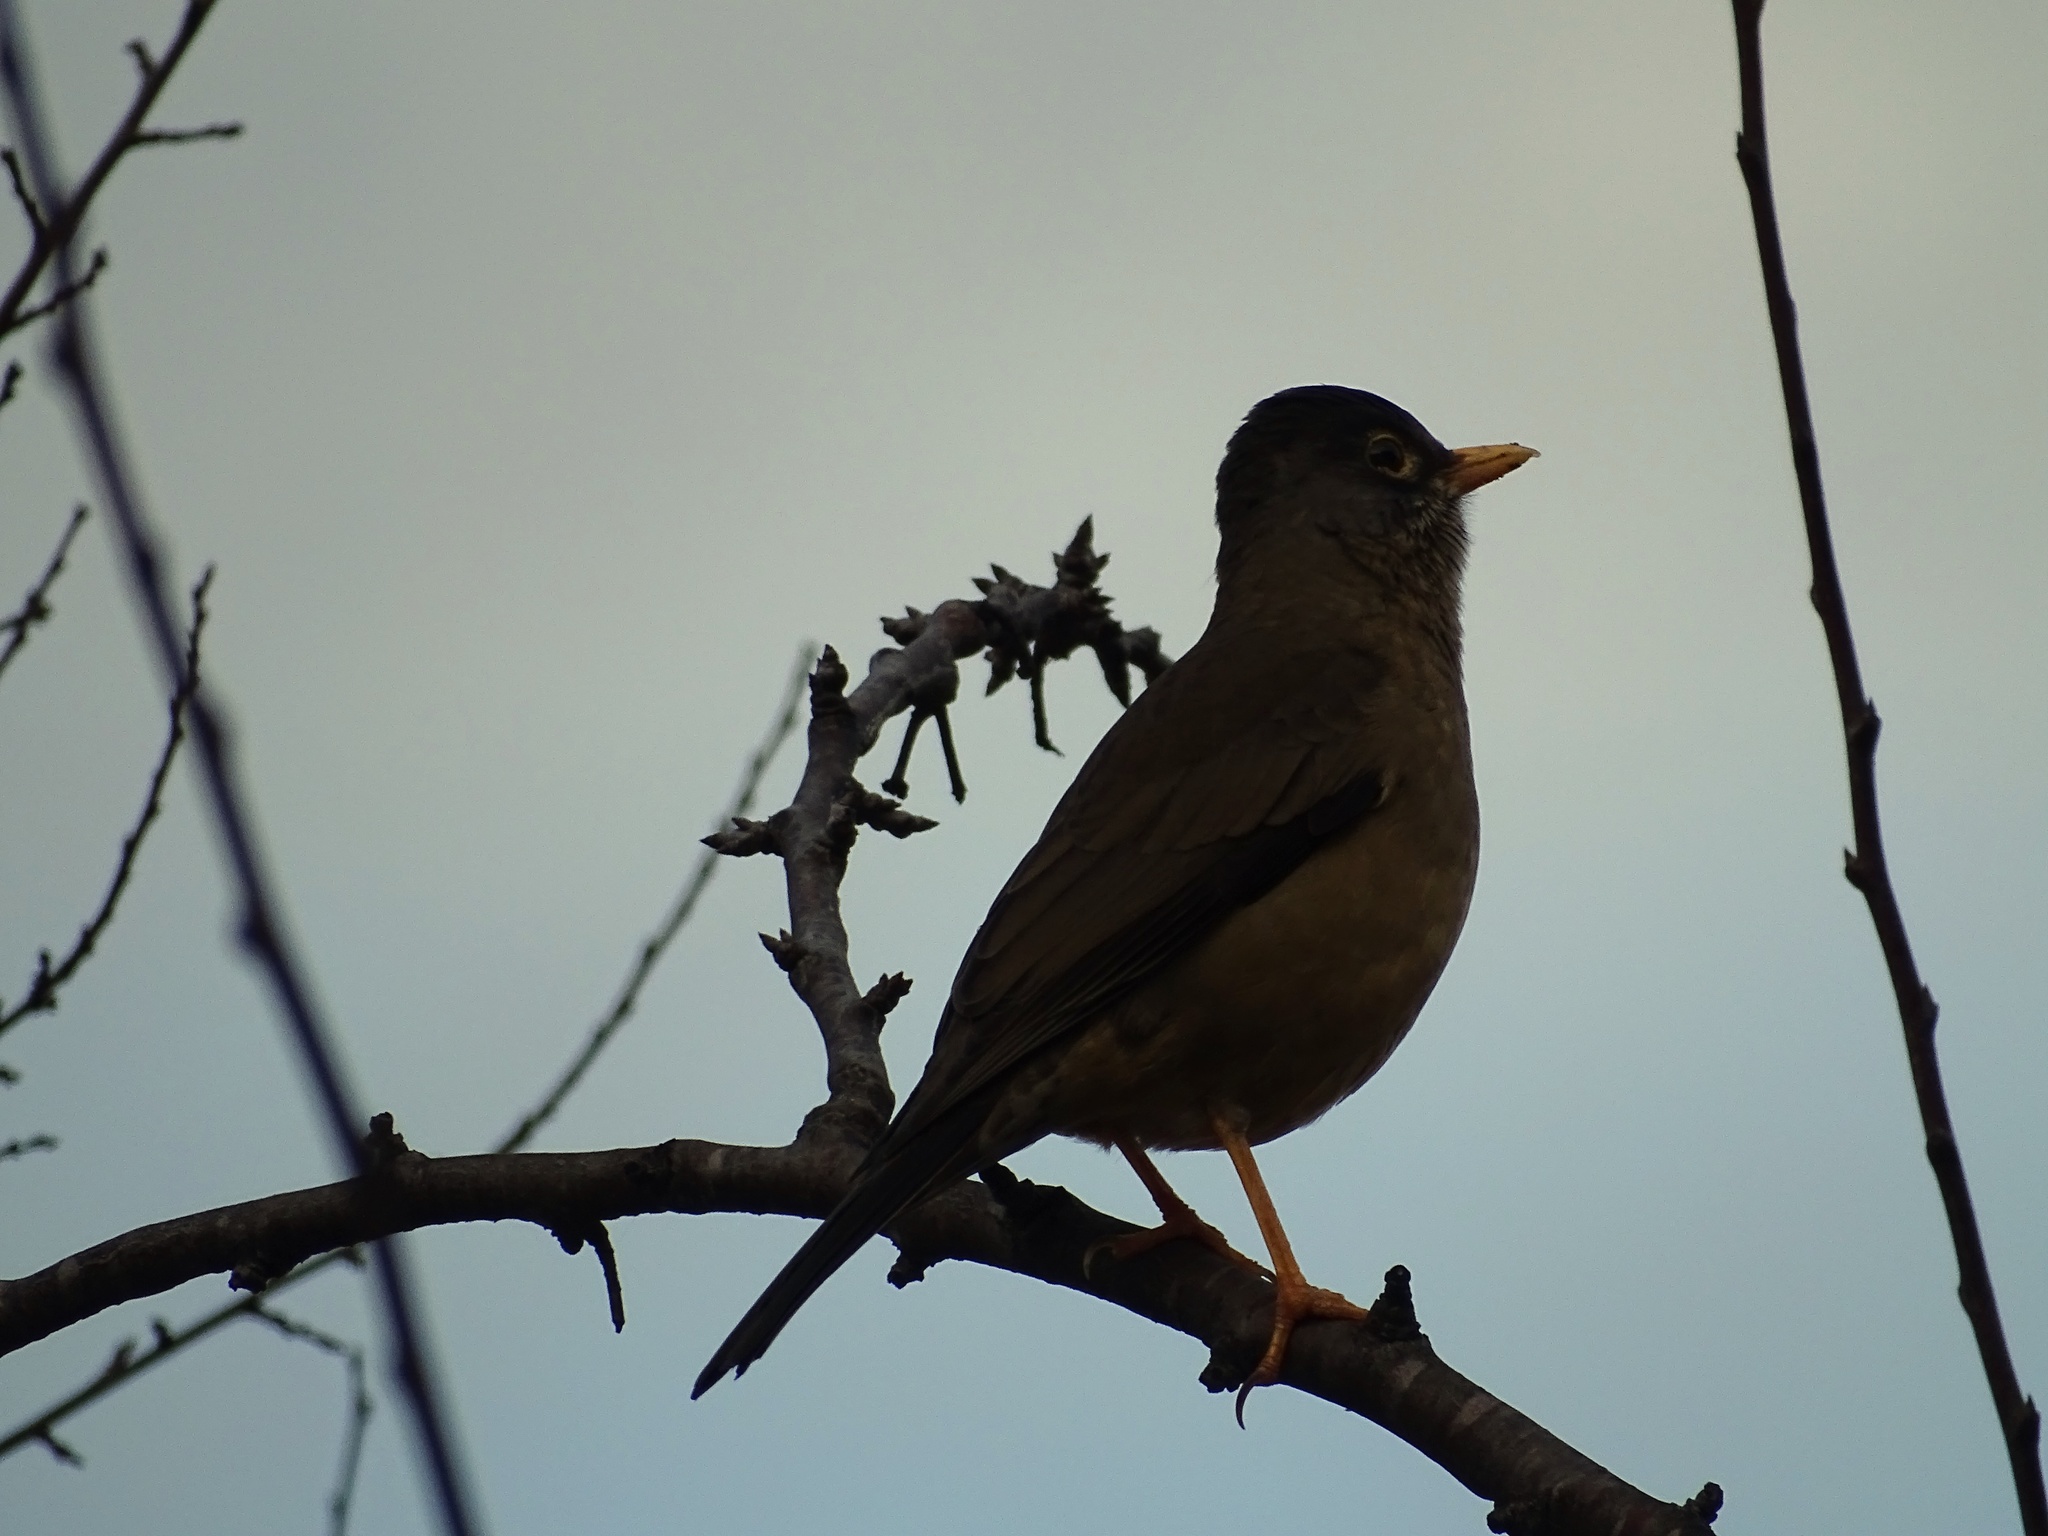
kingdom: Animalia
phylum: Chordata
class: Aves
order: Passeriformes
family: Turdidae
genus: Turdus
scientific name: Turdus falcklandii
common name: Austral thrush
